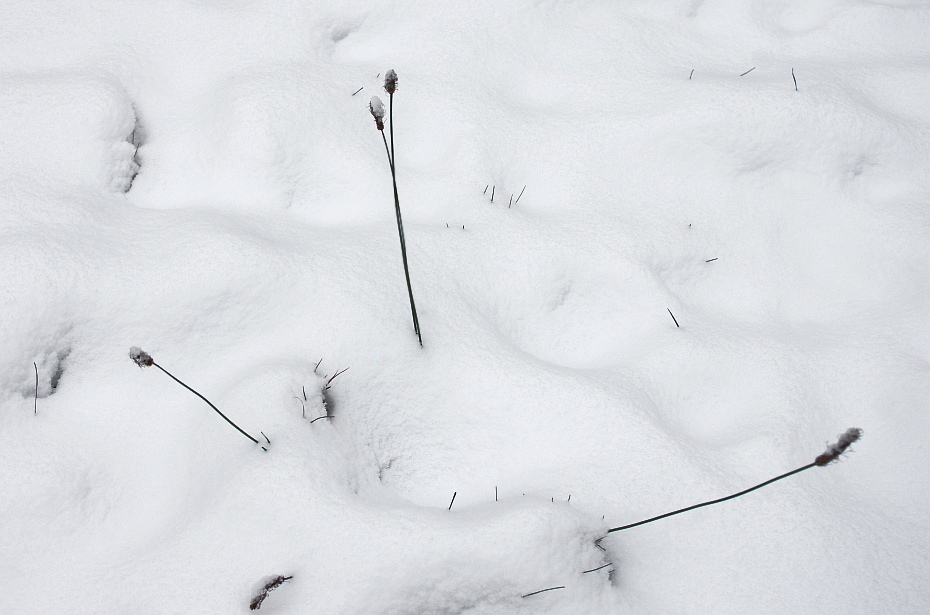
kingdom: Plantae
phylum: Tracheophyta
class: Magnoliopsida
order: Lamiales
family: Plantaginaceae
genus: Plantago
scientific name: Plantago lanceolata
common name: Ribwort plantain
